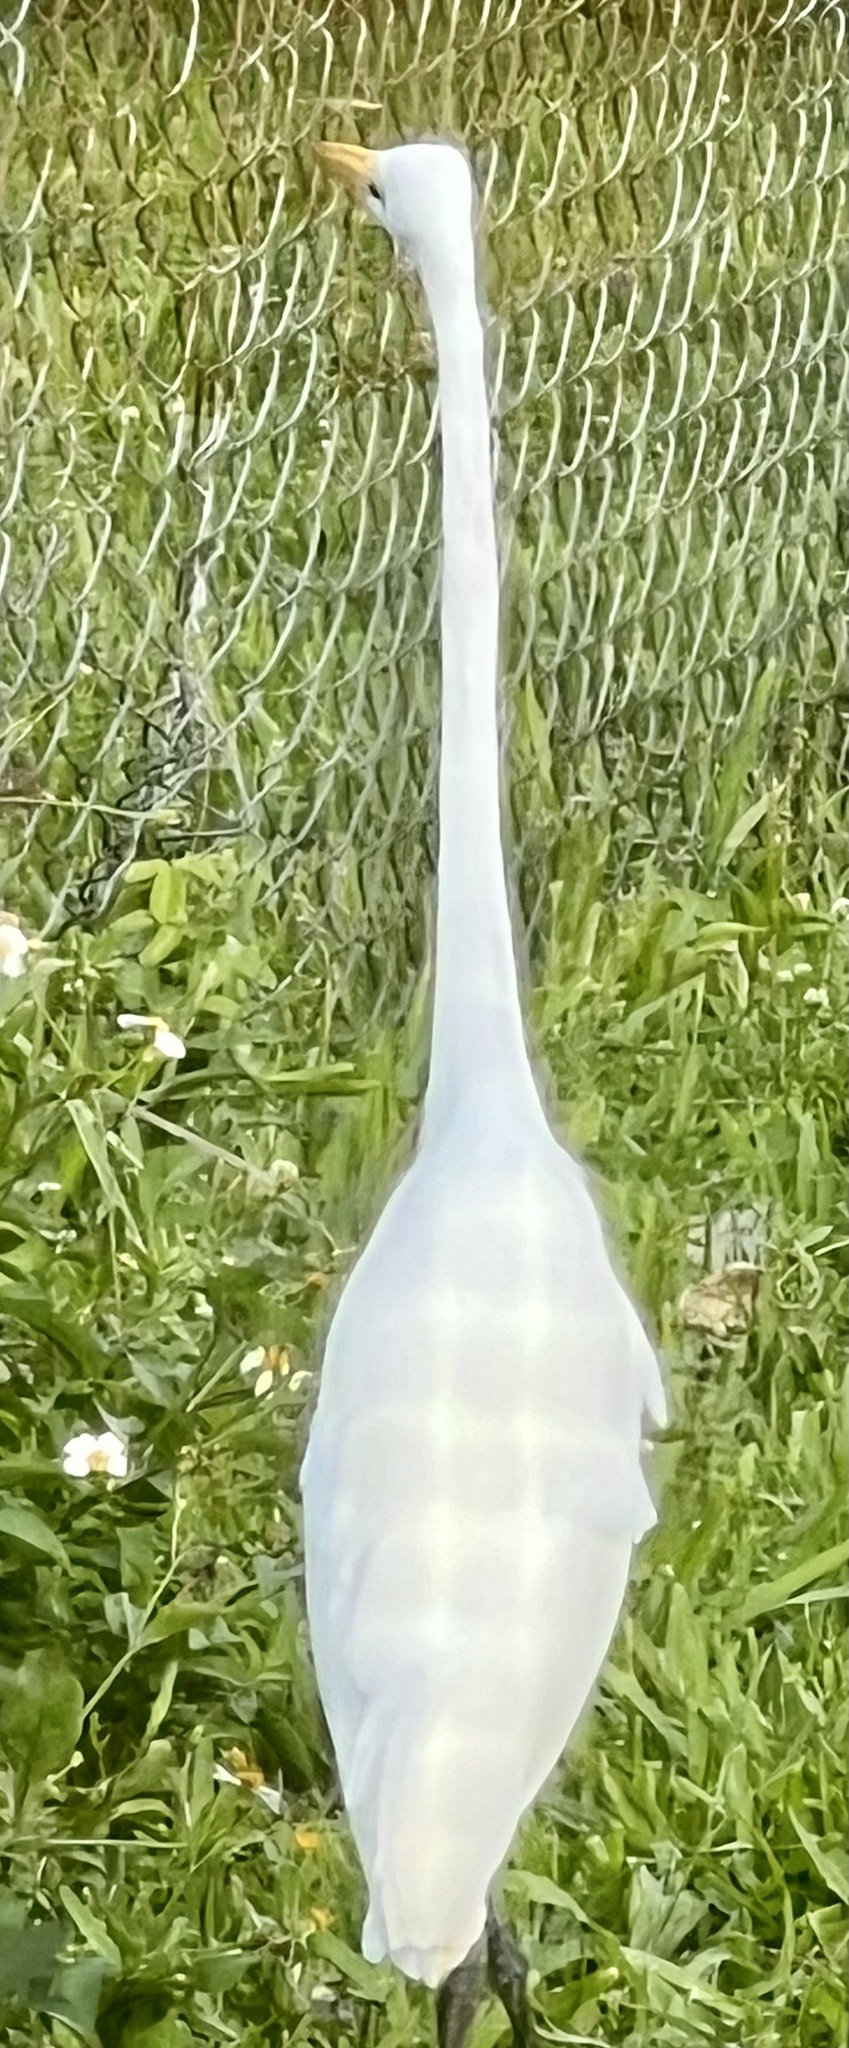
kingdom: Animalia
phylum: Chordata
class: Aves
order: Pelecaniformes
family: Ardeidae
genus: Ardea
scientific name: Ardea alba
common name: Great egret
